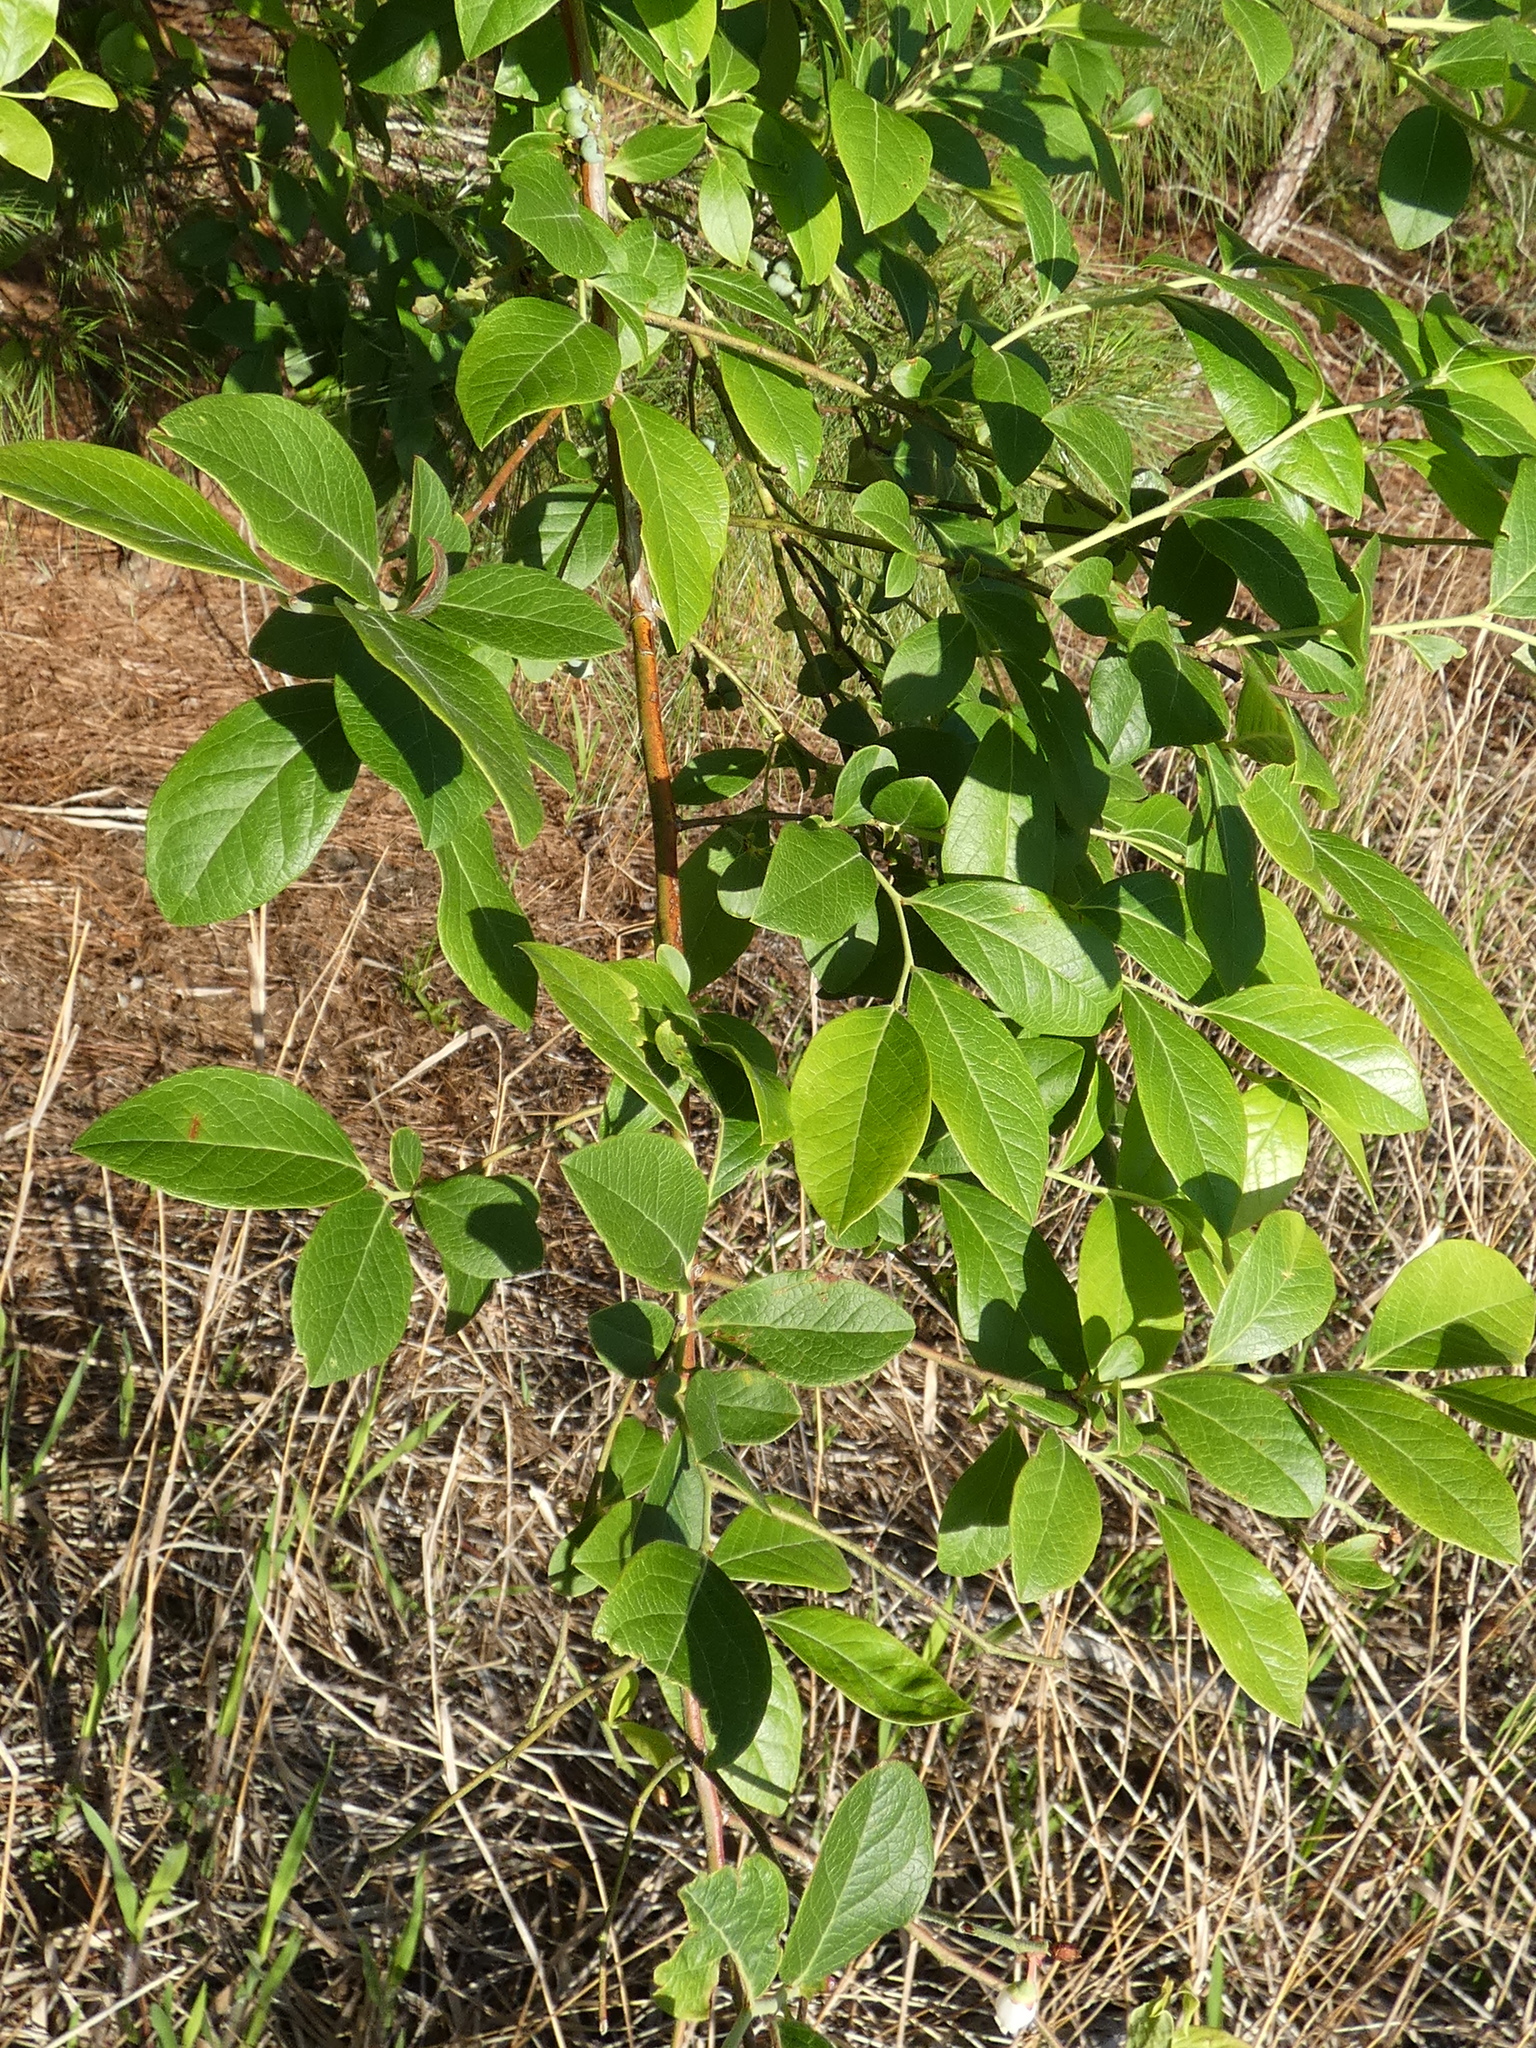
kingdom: Plantae
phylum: Tracheophyta
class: Magnoliopsida
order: Ericales
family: Ericaceae
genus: Vaccinium
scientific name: Vaccinium corymbosum
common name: Blueberry
